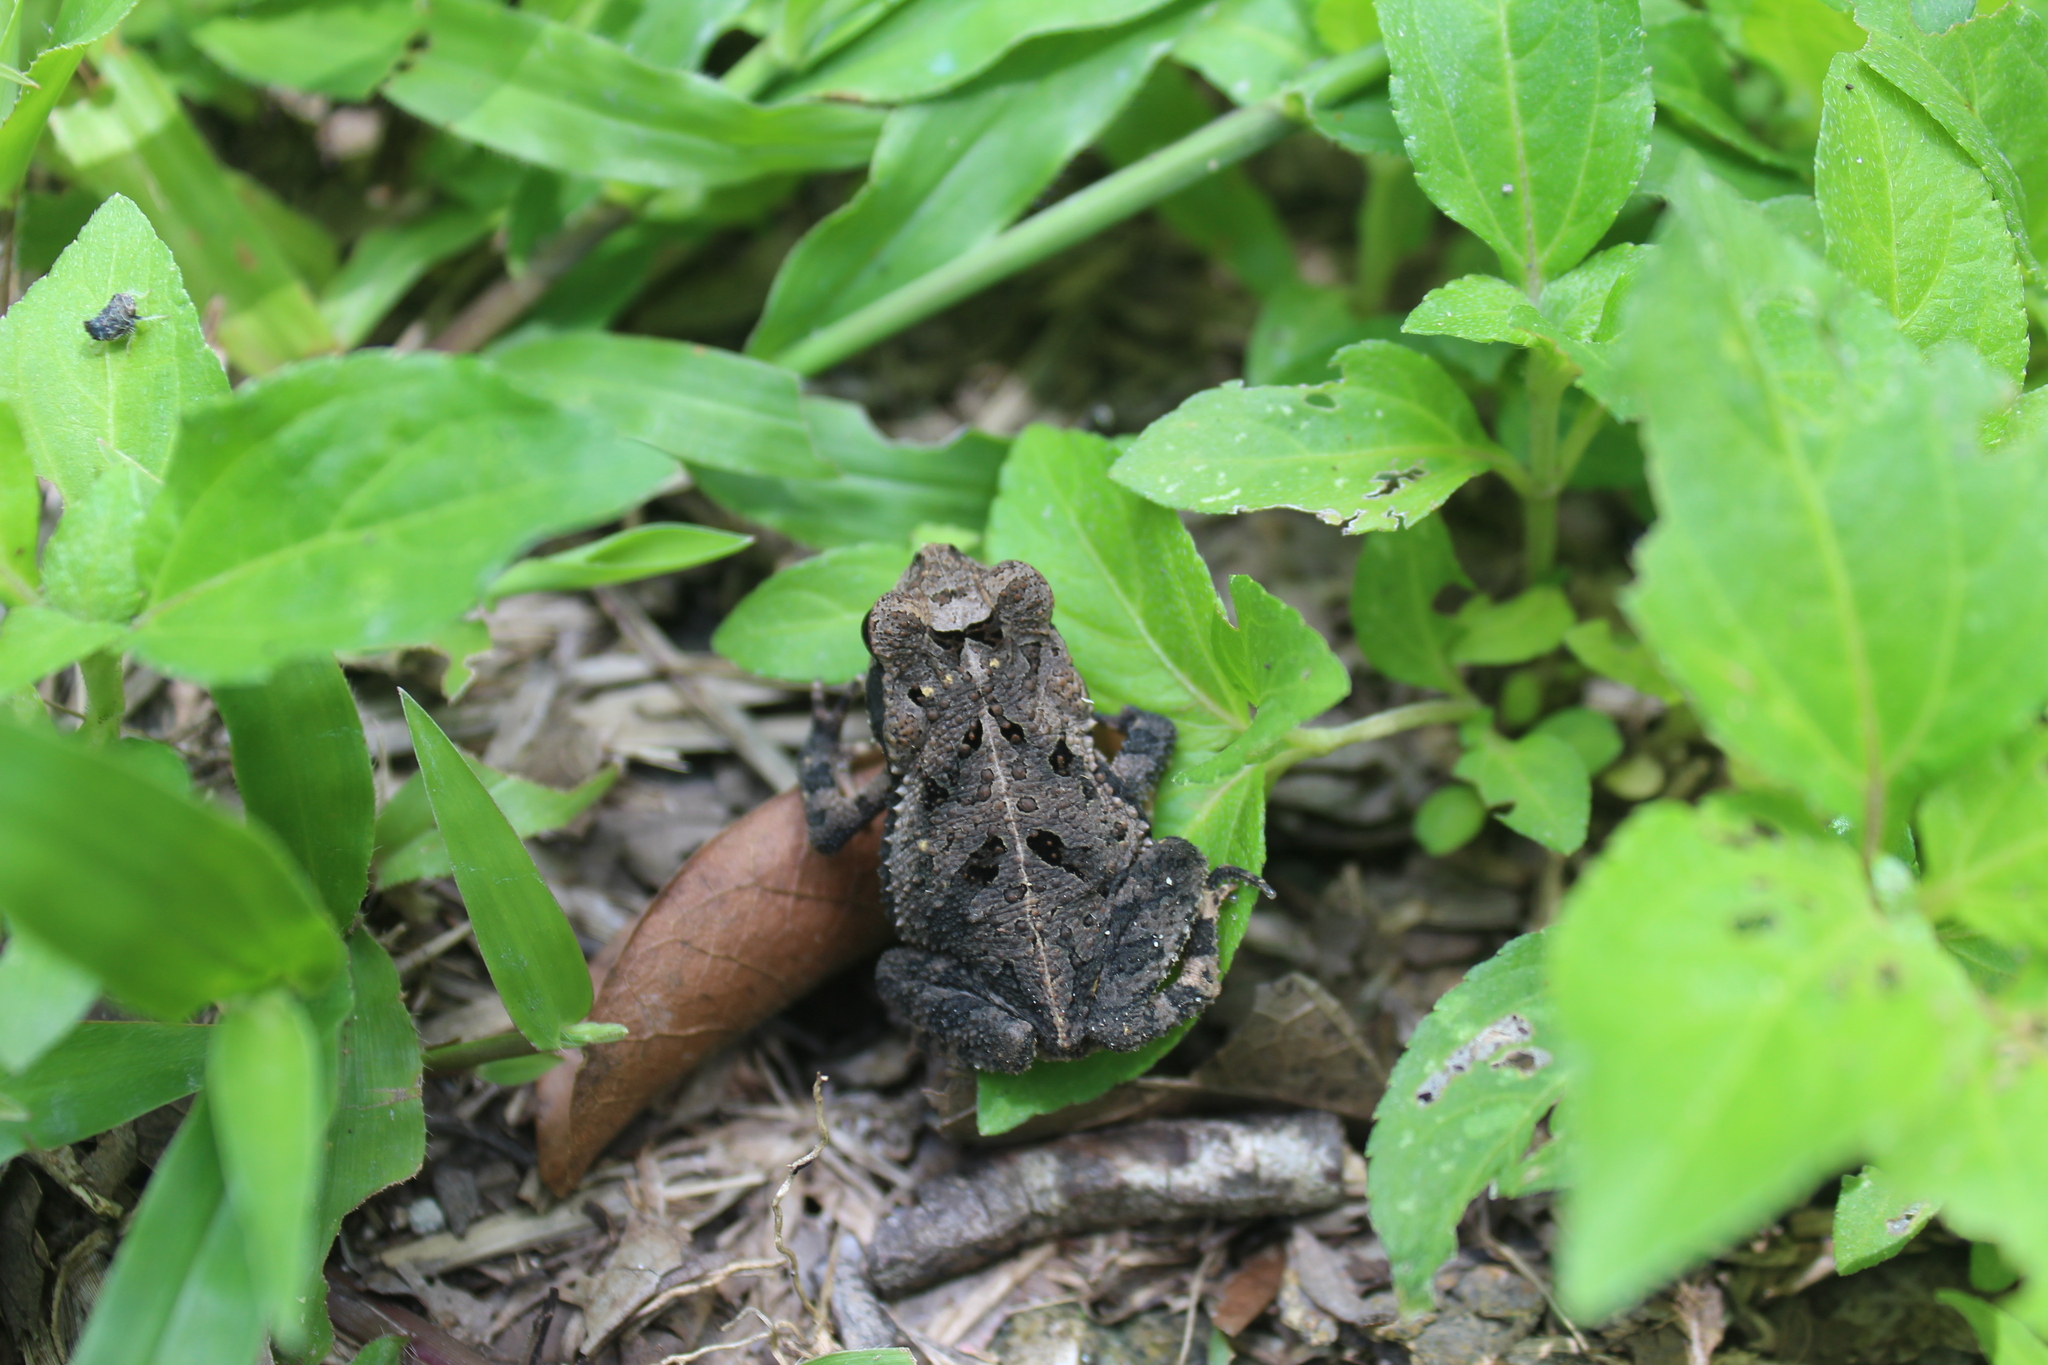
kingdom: Animalia
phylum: Chordata
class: Amphibia
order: Anura
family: Bufonidae
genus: Incilius
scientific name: Incilius valliceps
